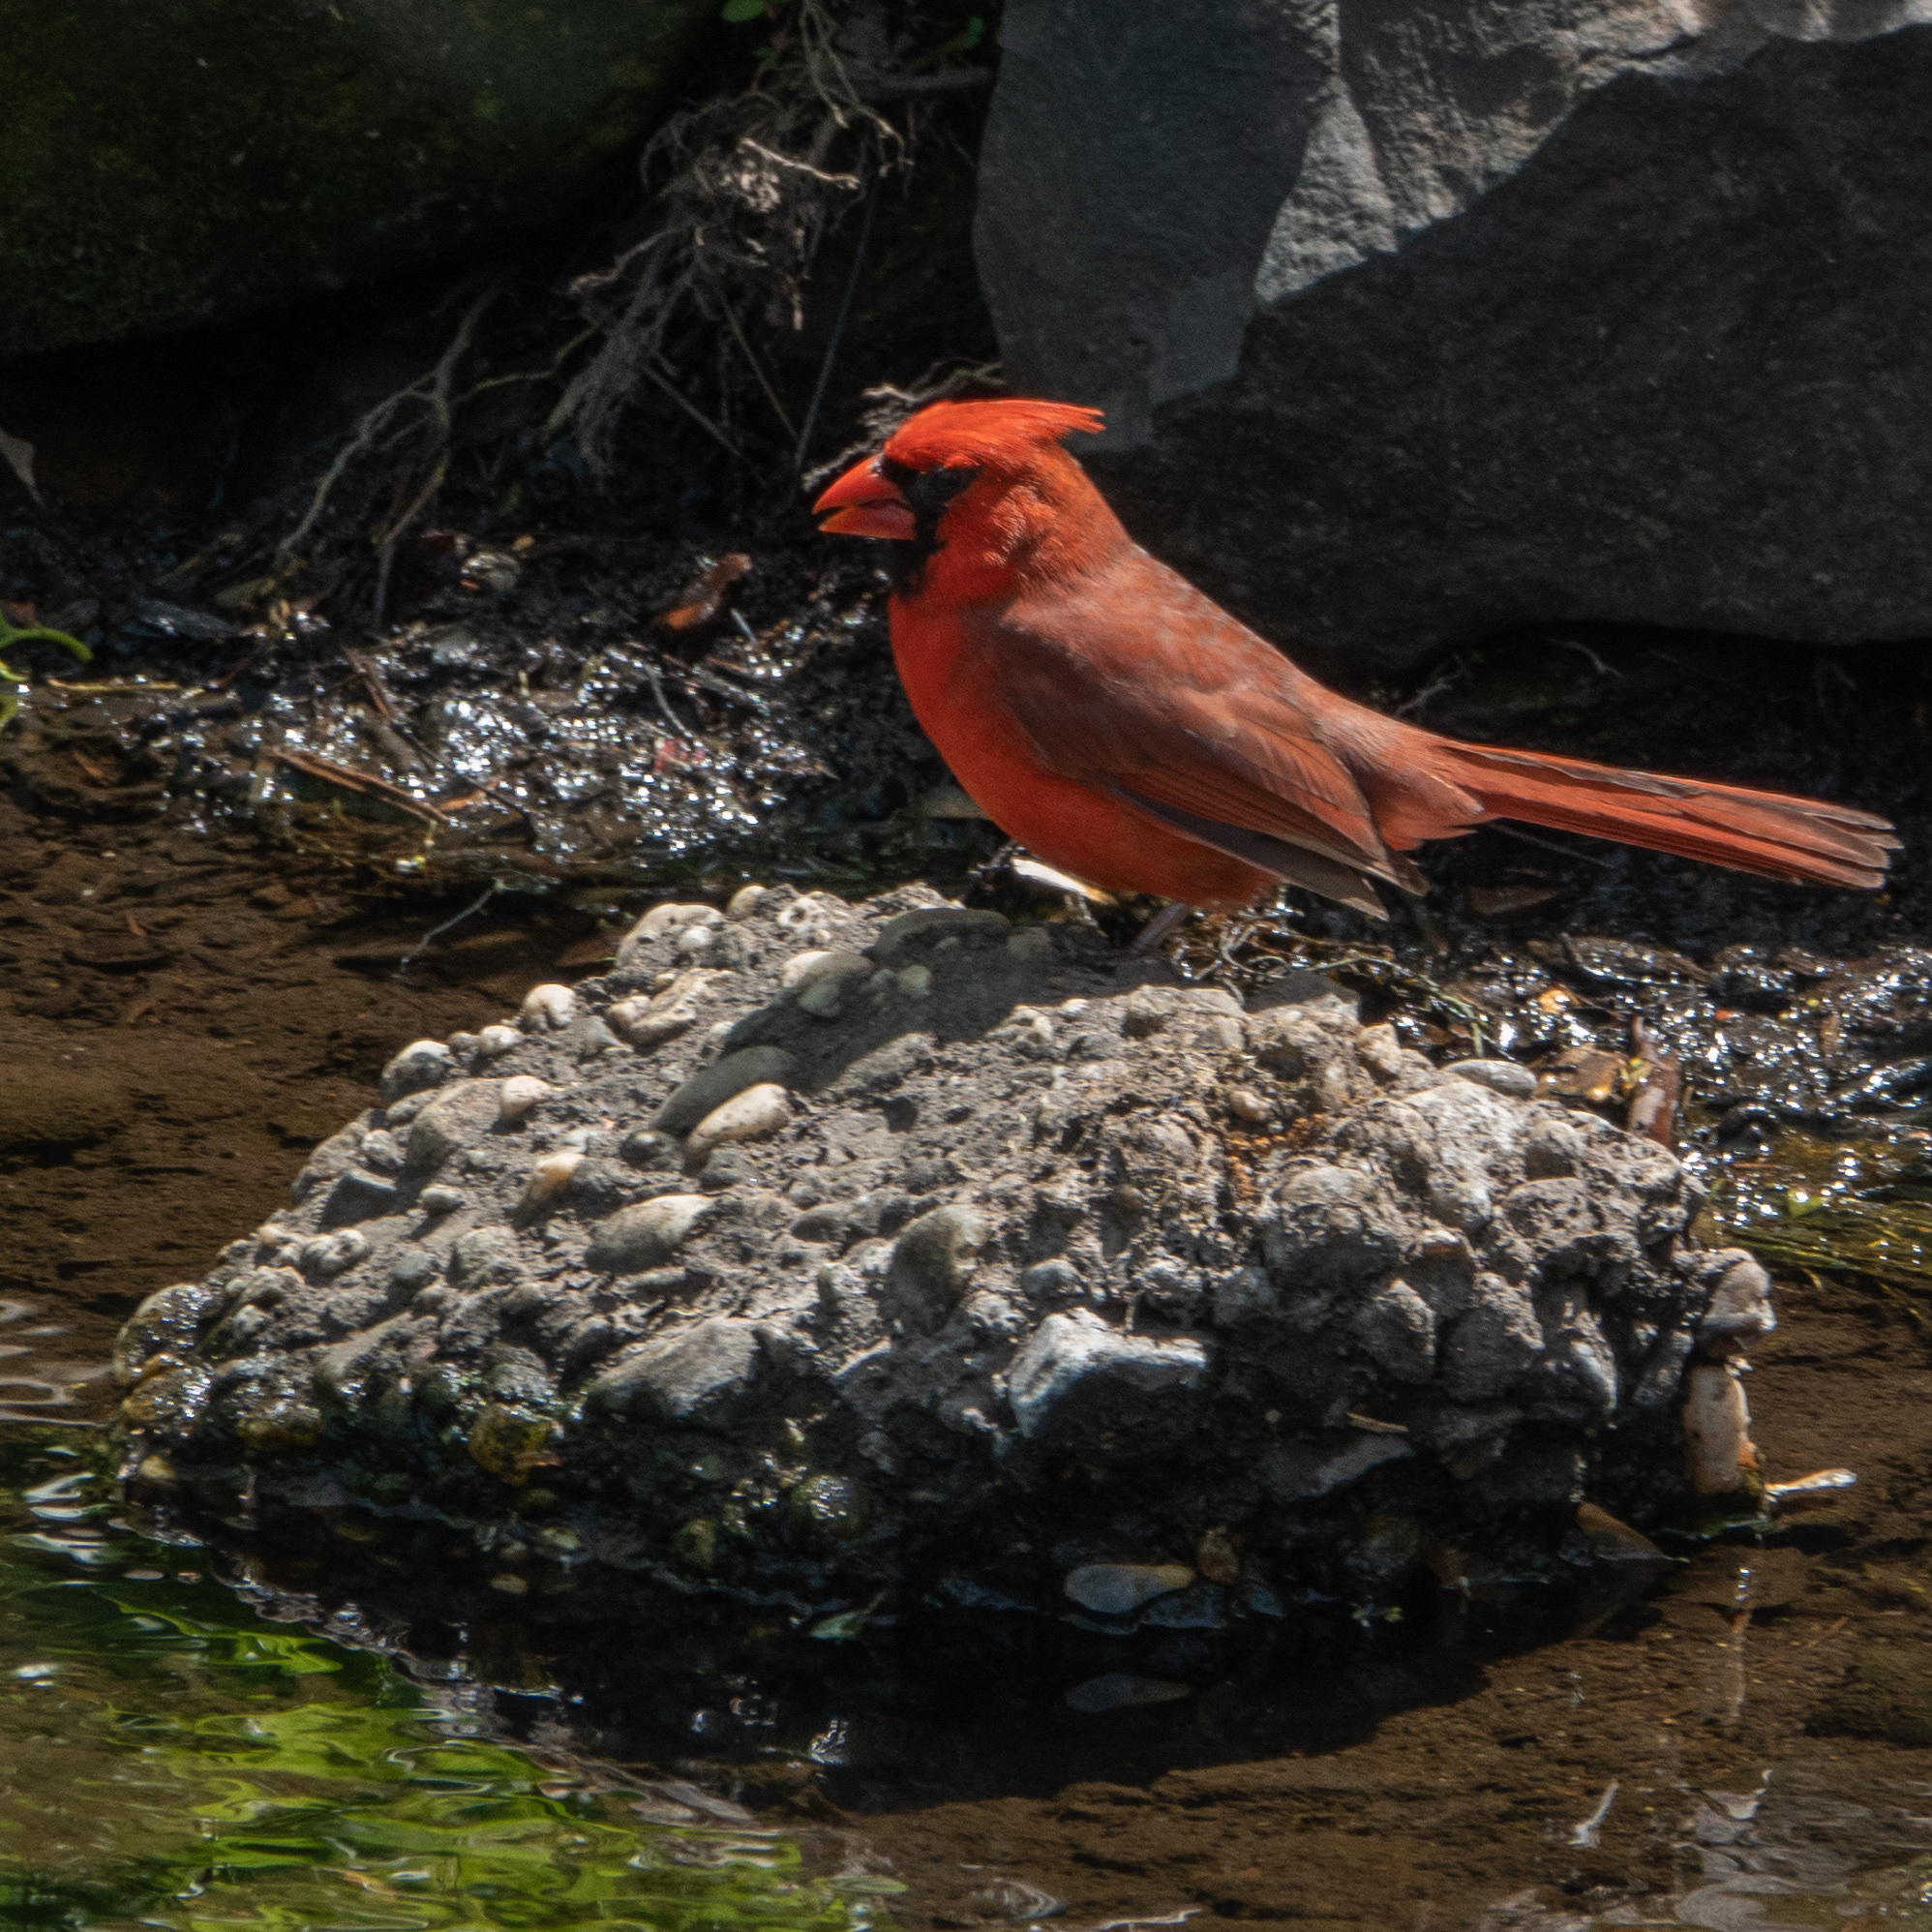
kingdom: Animalia
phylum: Chordata
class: Aves
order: Passeriformes
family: Cardinalidae
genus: Cardinalis
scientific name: Cardinalis cardinalis
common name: Northern cardinal
